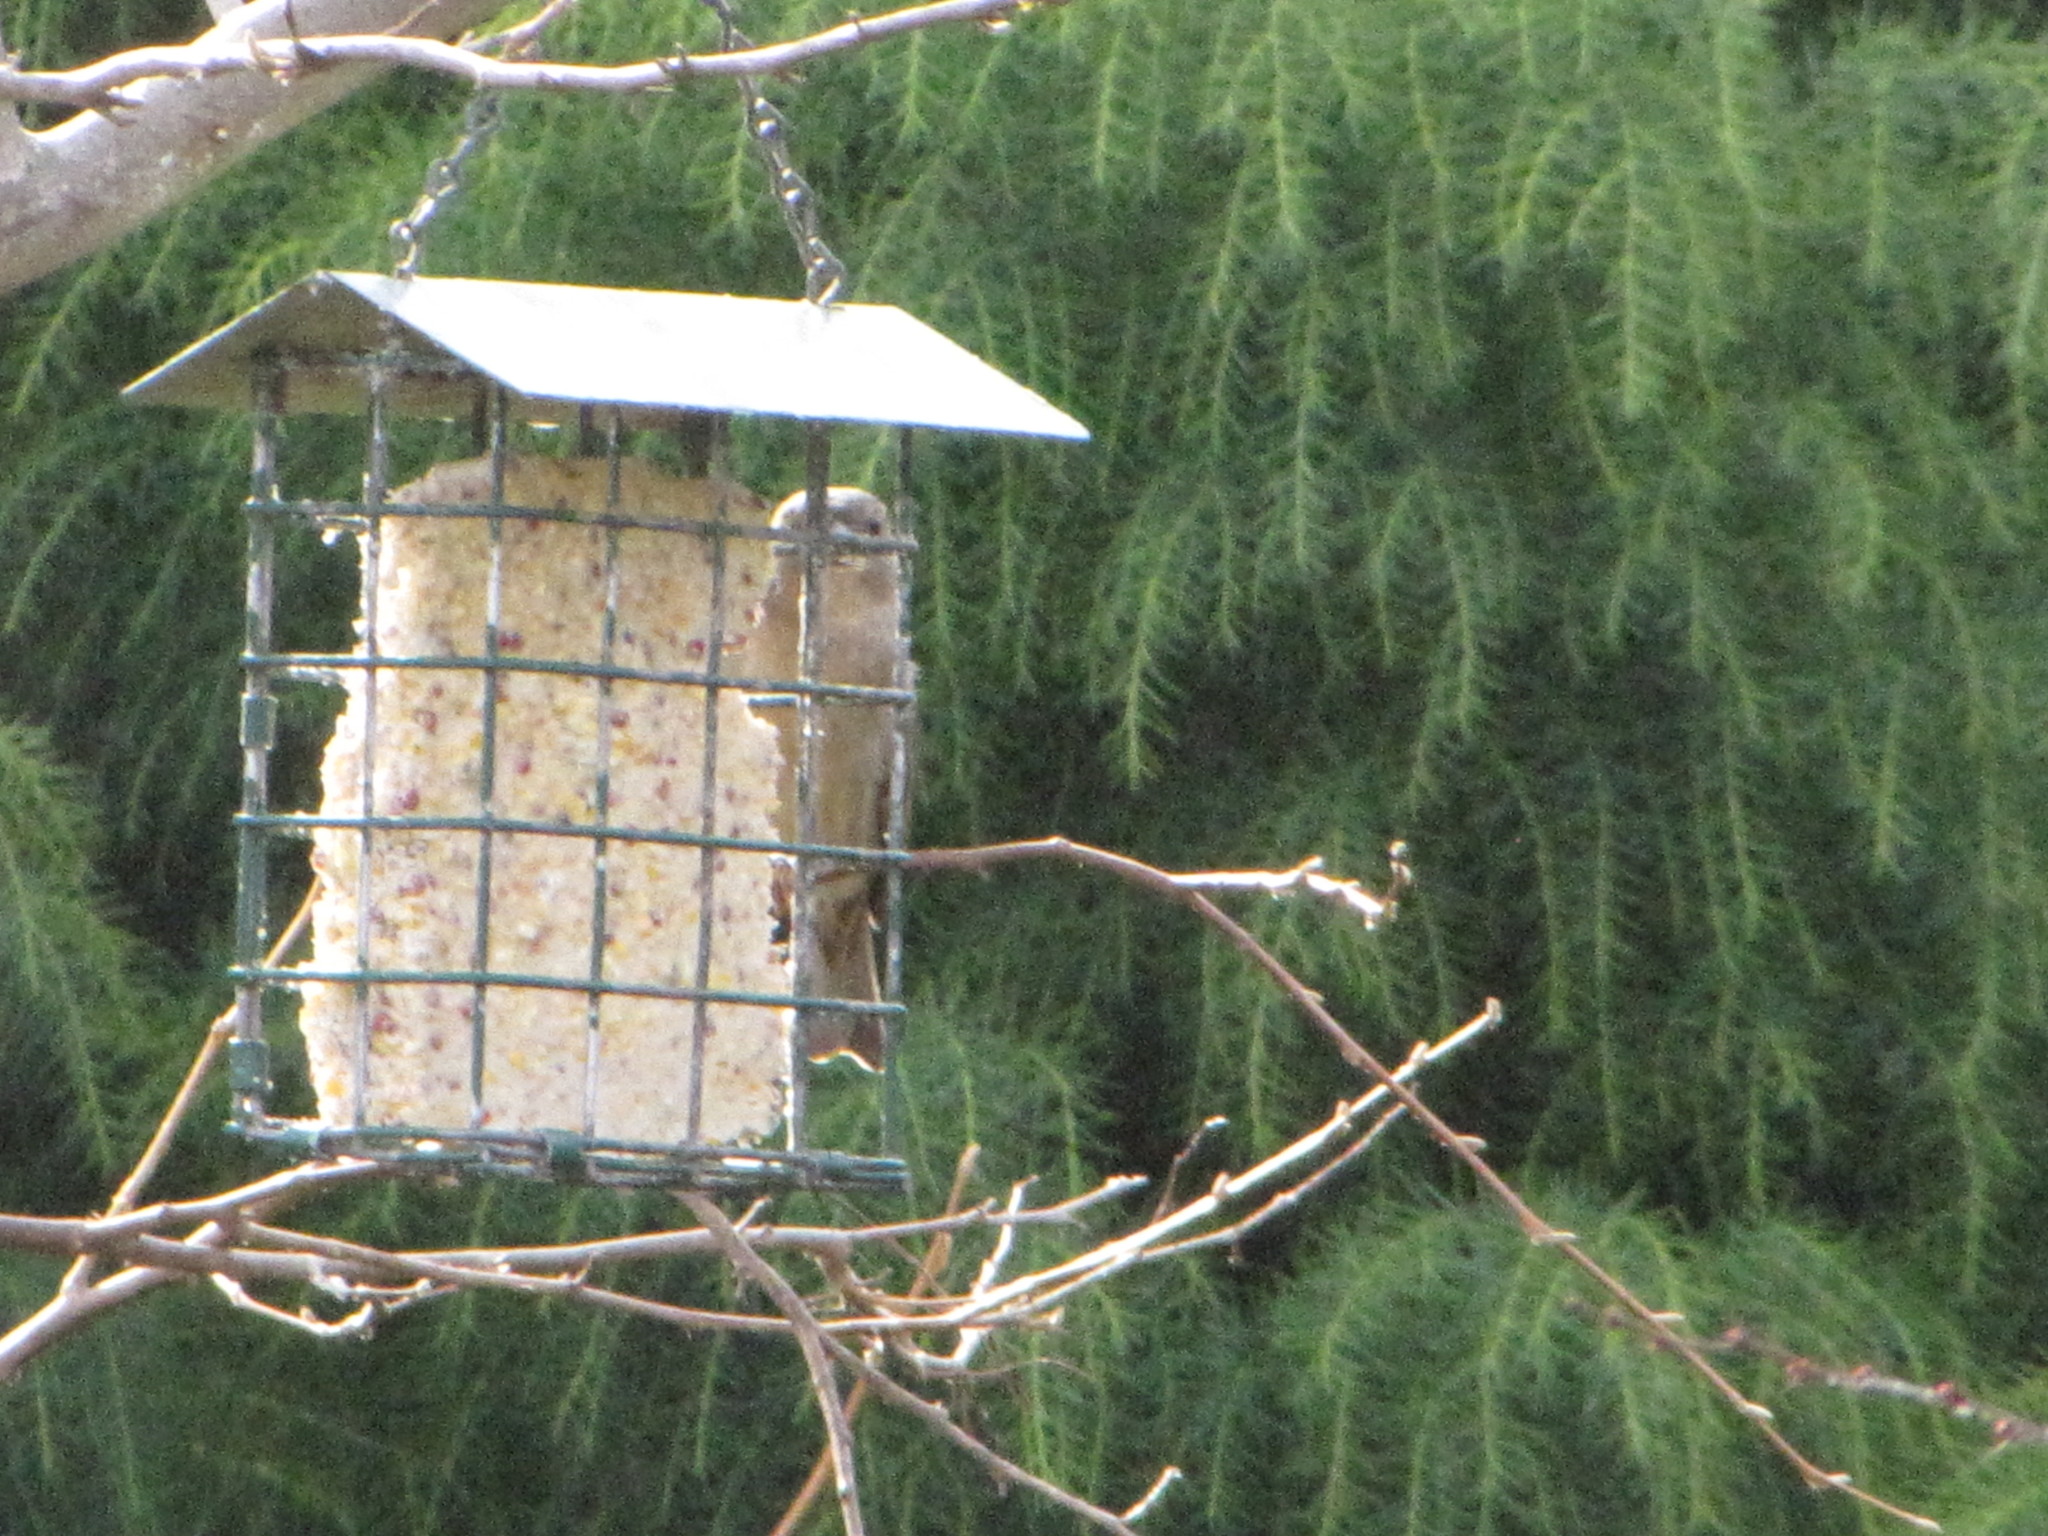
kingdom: Animalia
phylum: Chordata
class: Aves
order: Passeriformes
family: Passeridae
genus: Passer
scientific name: Passer domesticus
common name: House sparrow
